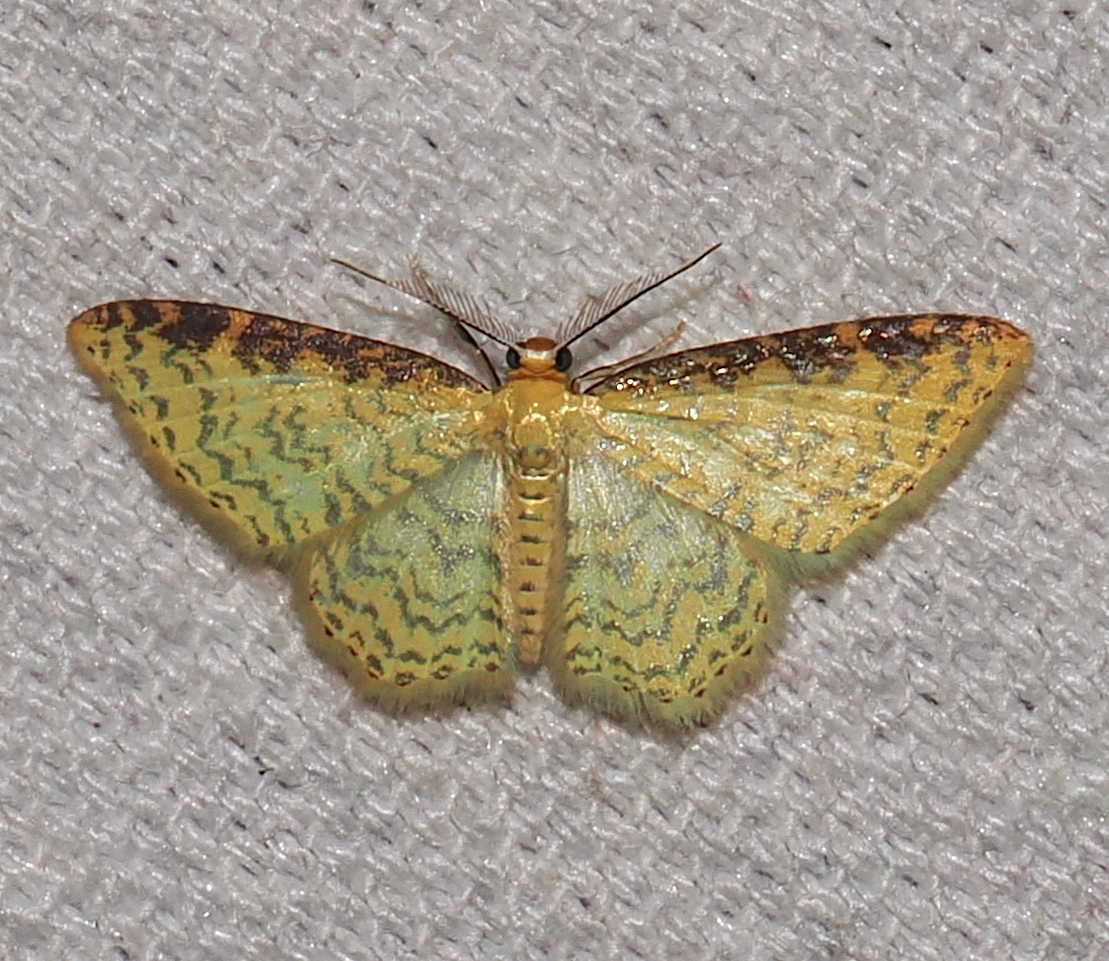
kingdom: Animalia
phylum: Arthropoda
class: Insecta
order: Lepidoptera
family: Geometridae
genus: Eois
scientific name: Eois adimaria
